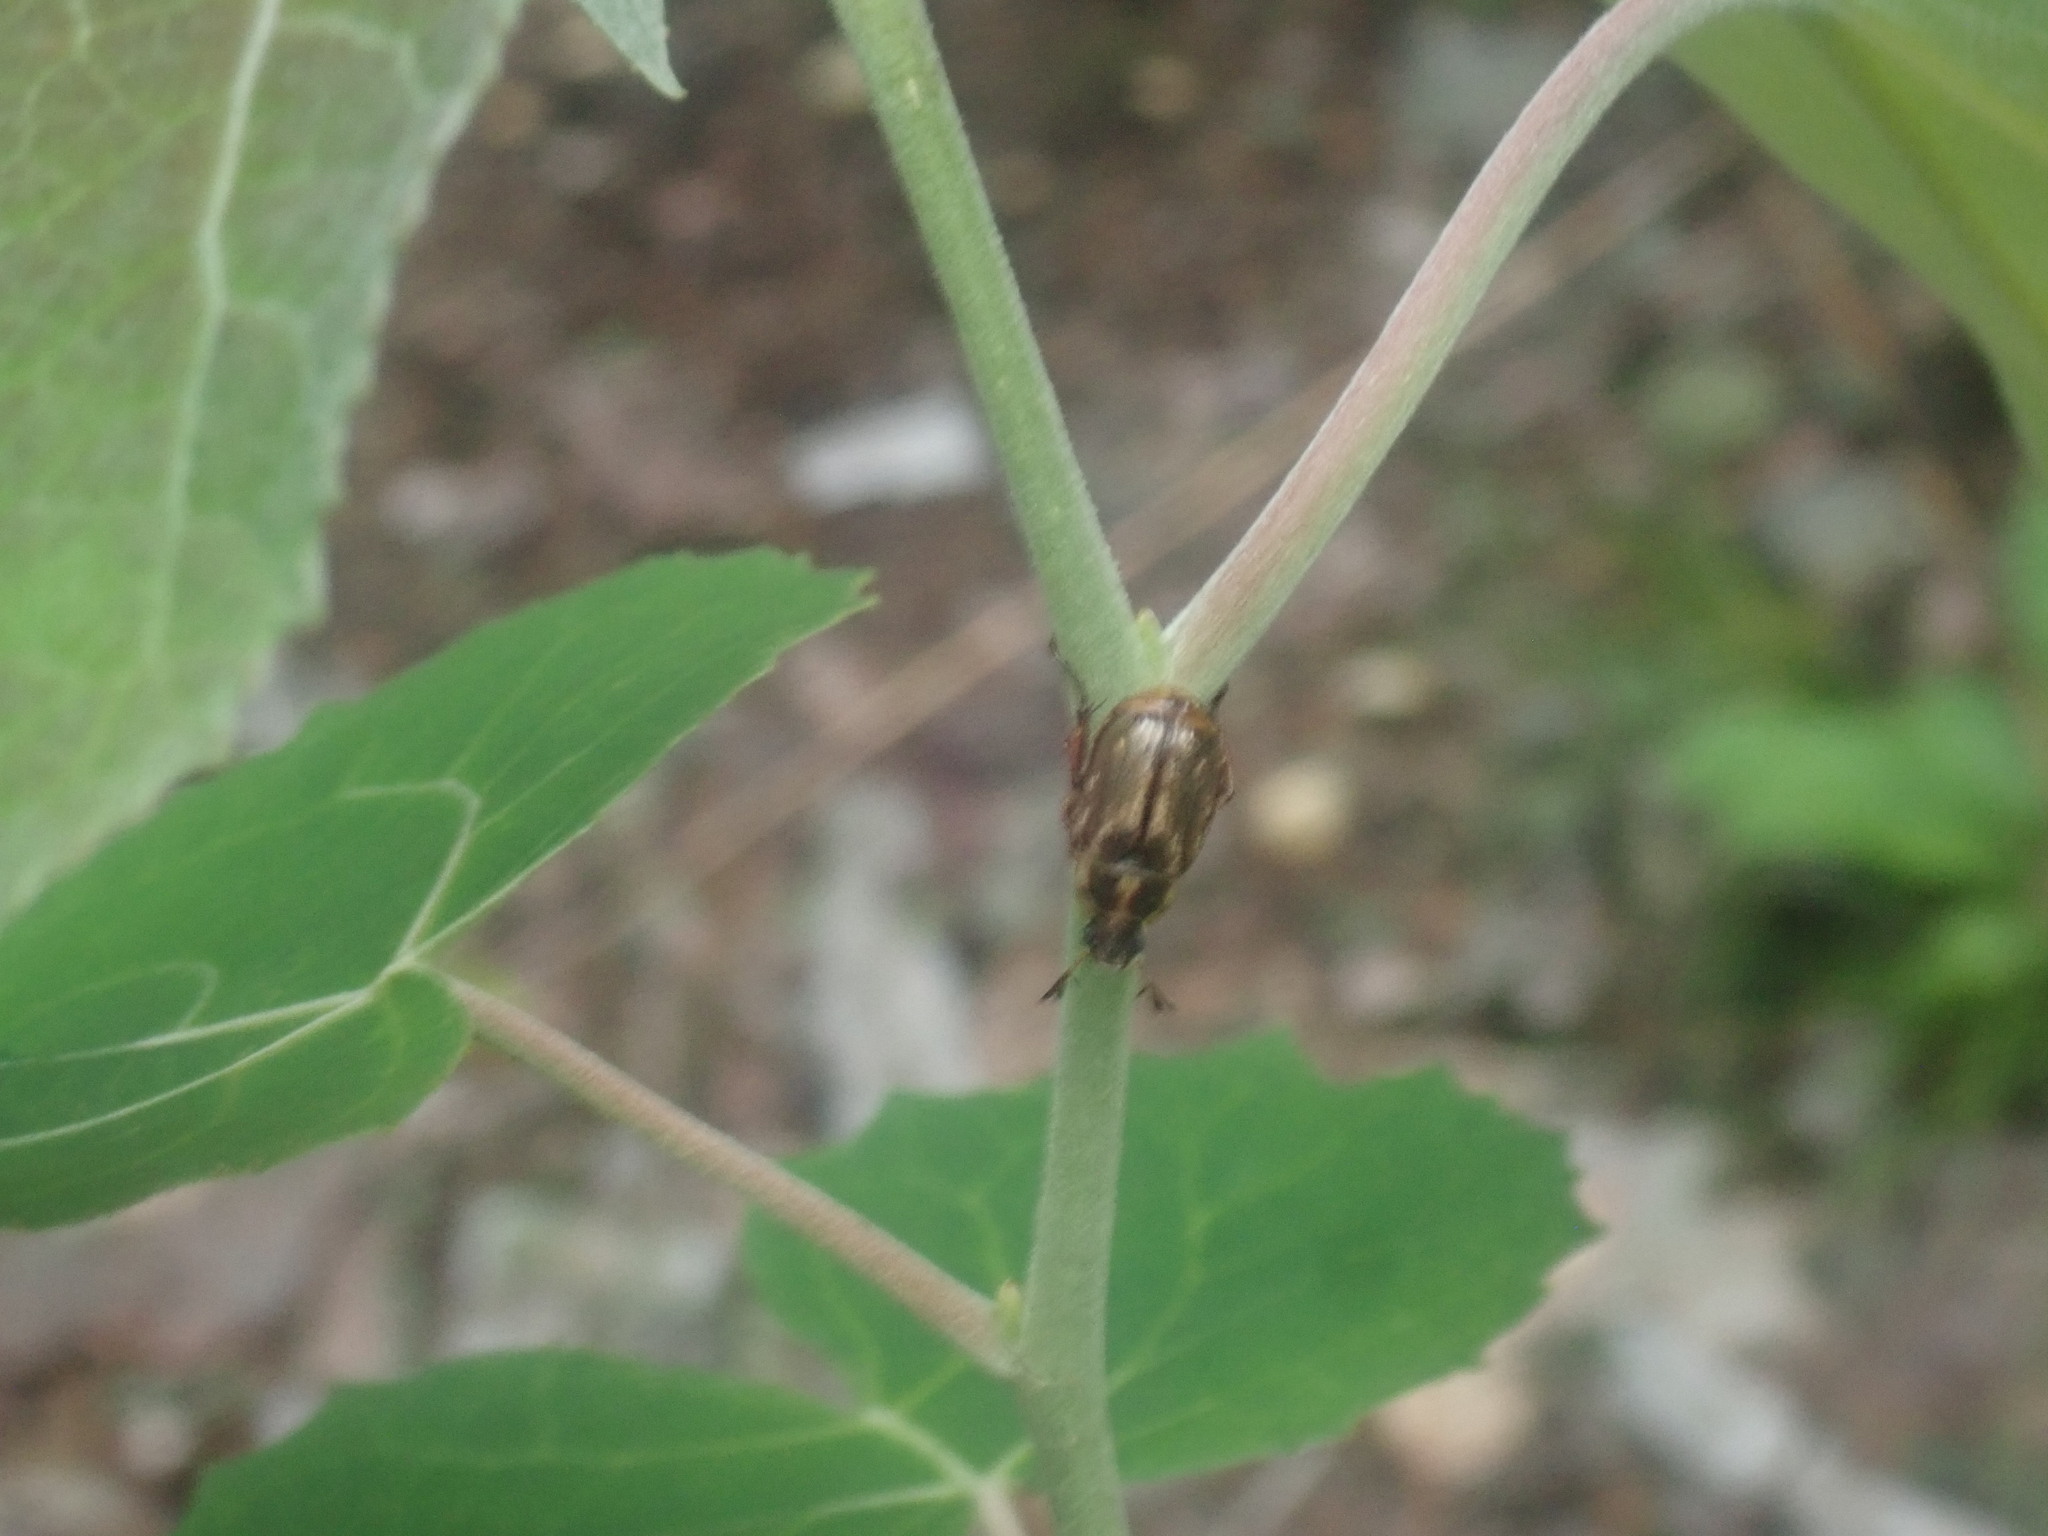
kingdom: Animalia
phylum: Arthropoda
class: Insecta
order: Coleoptera
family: Scarabaeidae
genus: Exomala
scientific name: Exomala orientalis
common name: Oriental beetle
